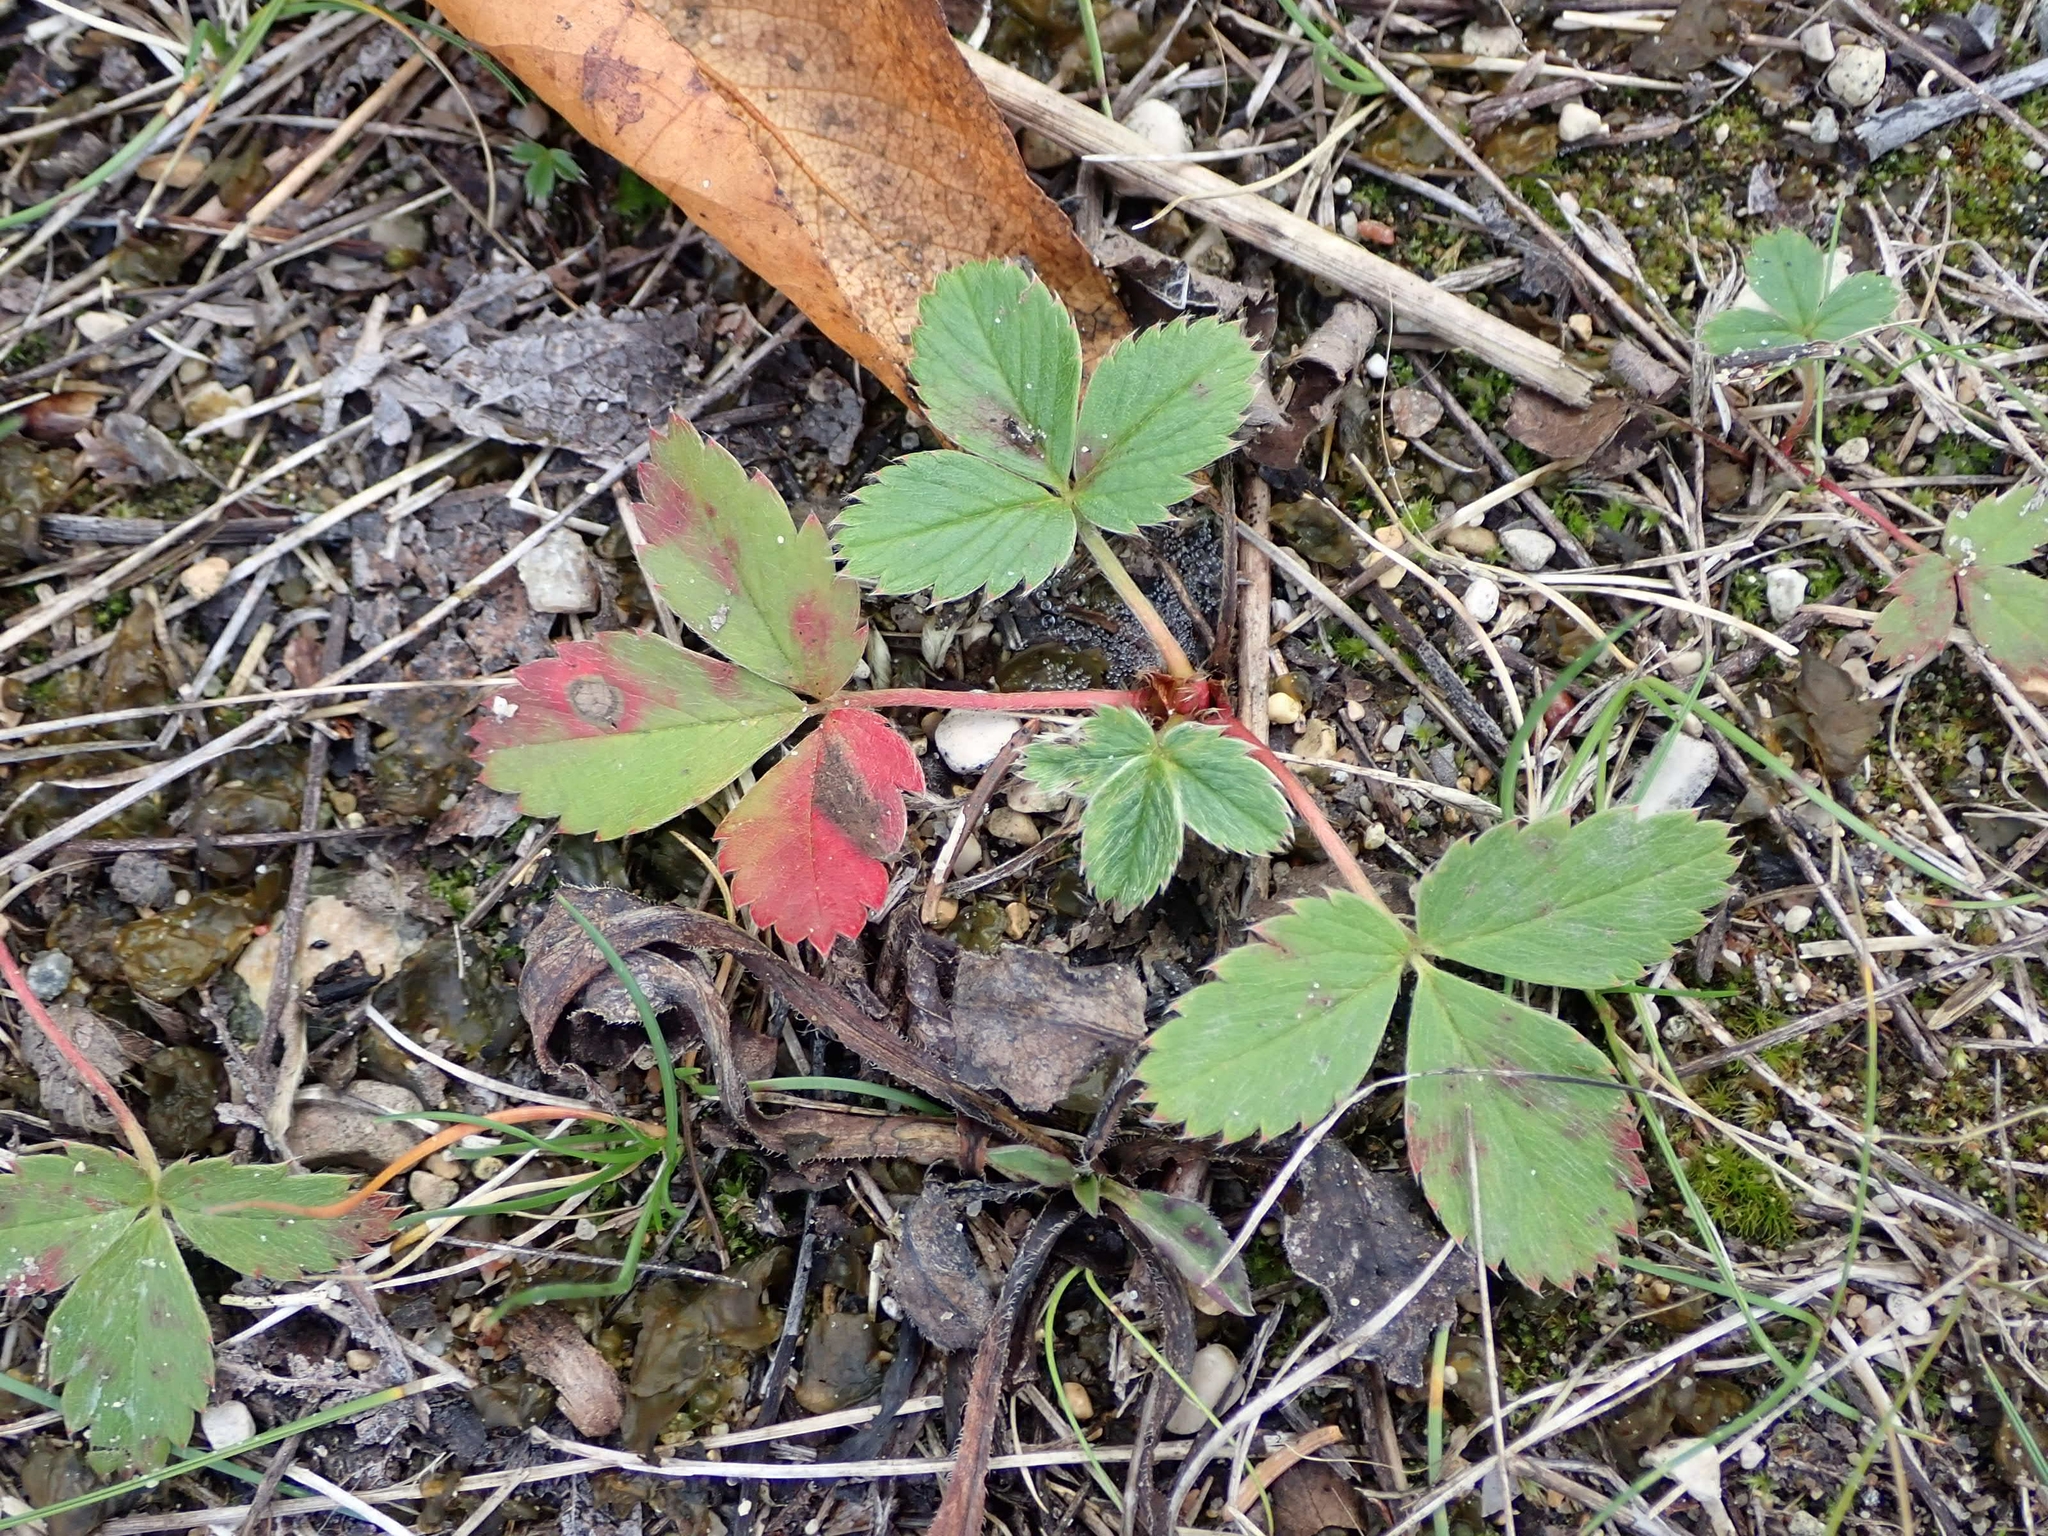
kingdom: Plantae
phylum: Tracheophyta
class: Magnoliopsida
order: Rosales
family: Rosaceae
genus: Fragaria
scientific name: Fragaria virginiana
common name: Thickleaved wild strawberry
